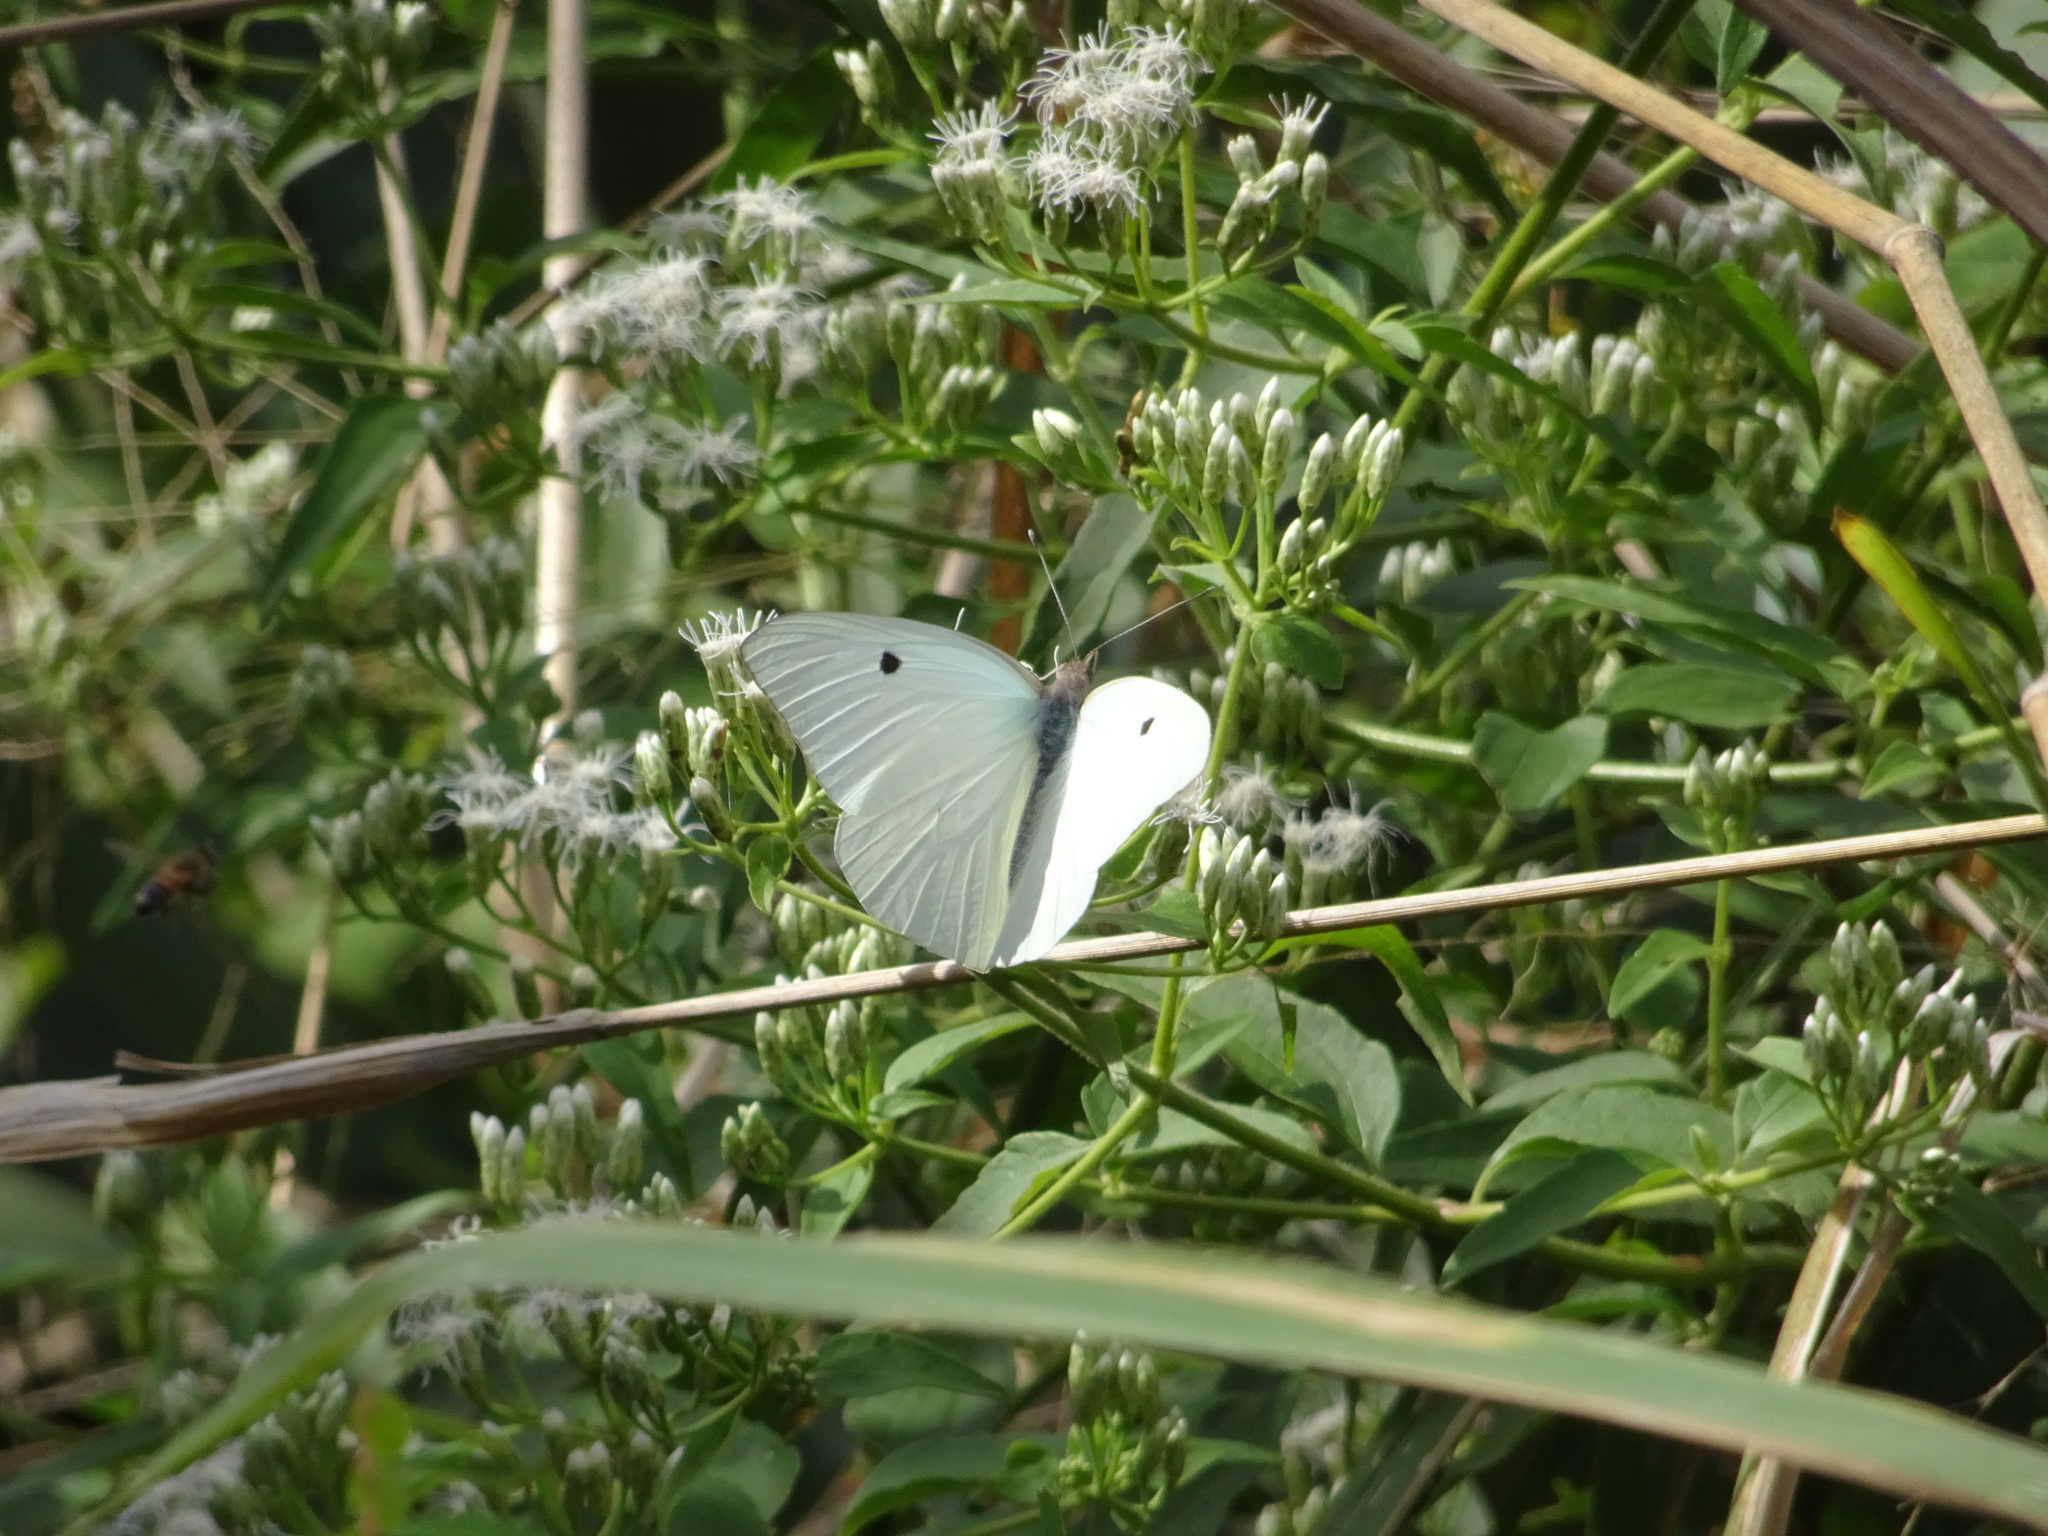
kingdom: Animalia
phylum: Arthropoda
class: Insecta
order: Lepidoptera
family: Pieridae
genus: Ganyra
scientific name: Ganyra josephina
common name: Giant white
